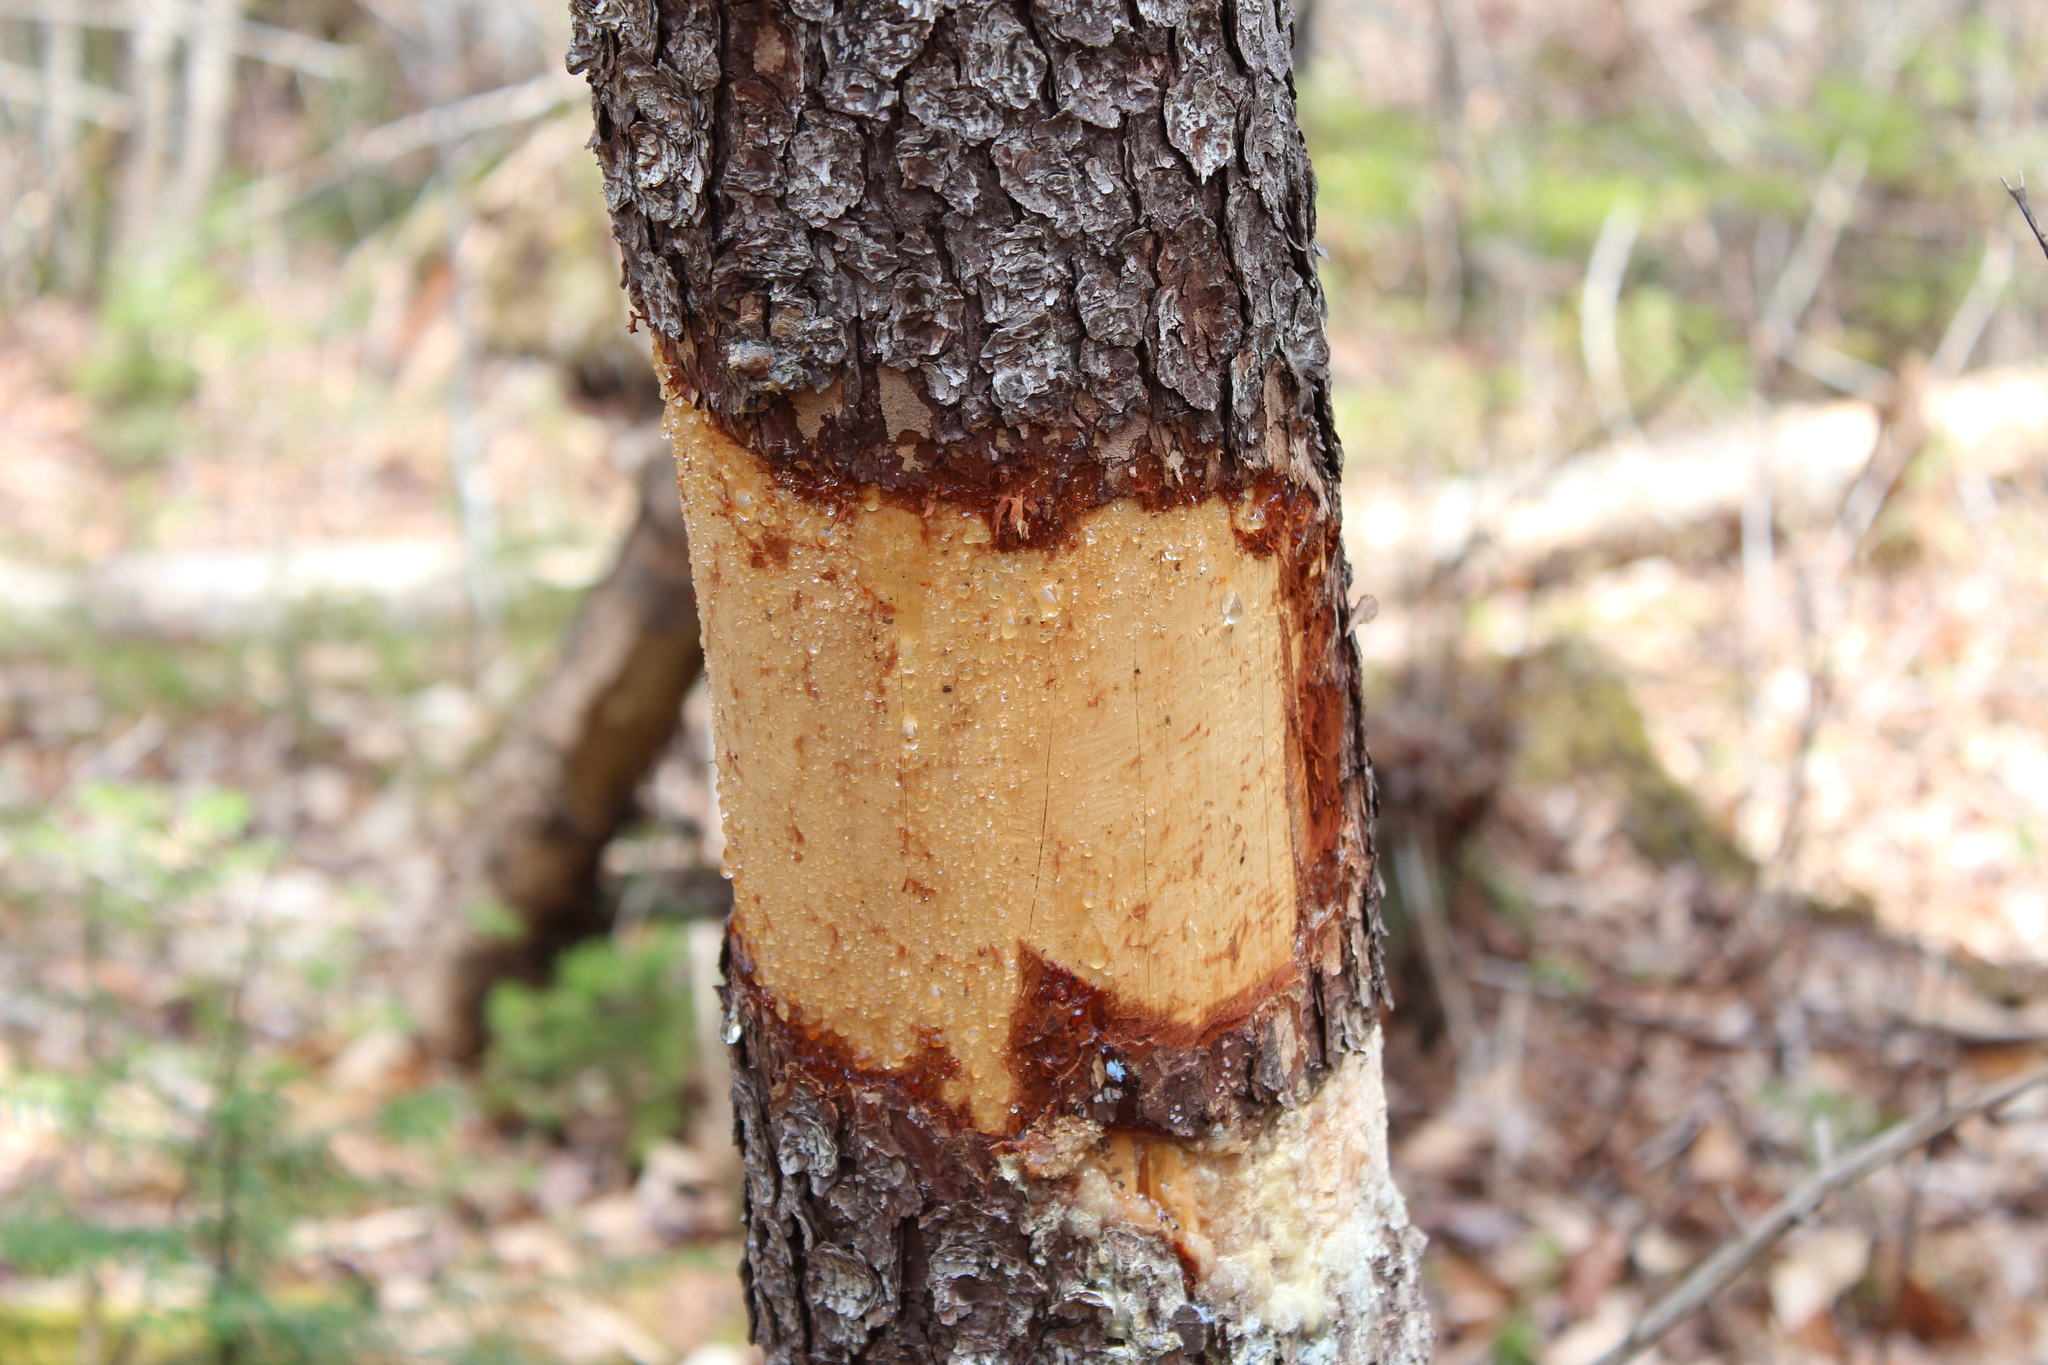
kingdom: Animalia
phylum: Chordata
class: Mammalia
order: Rodentia
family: Erethizontidae
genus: Erethizon
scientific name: Erethizon dorsatus
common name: North american porcupine
